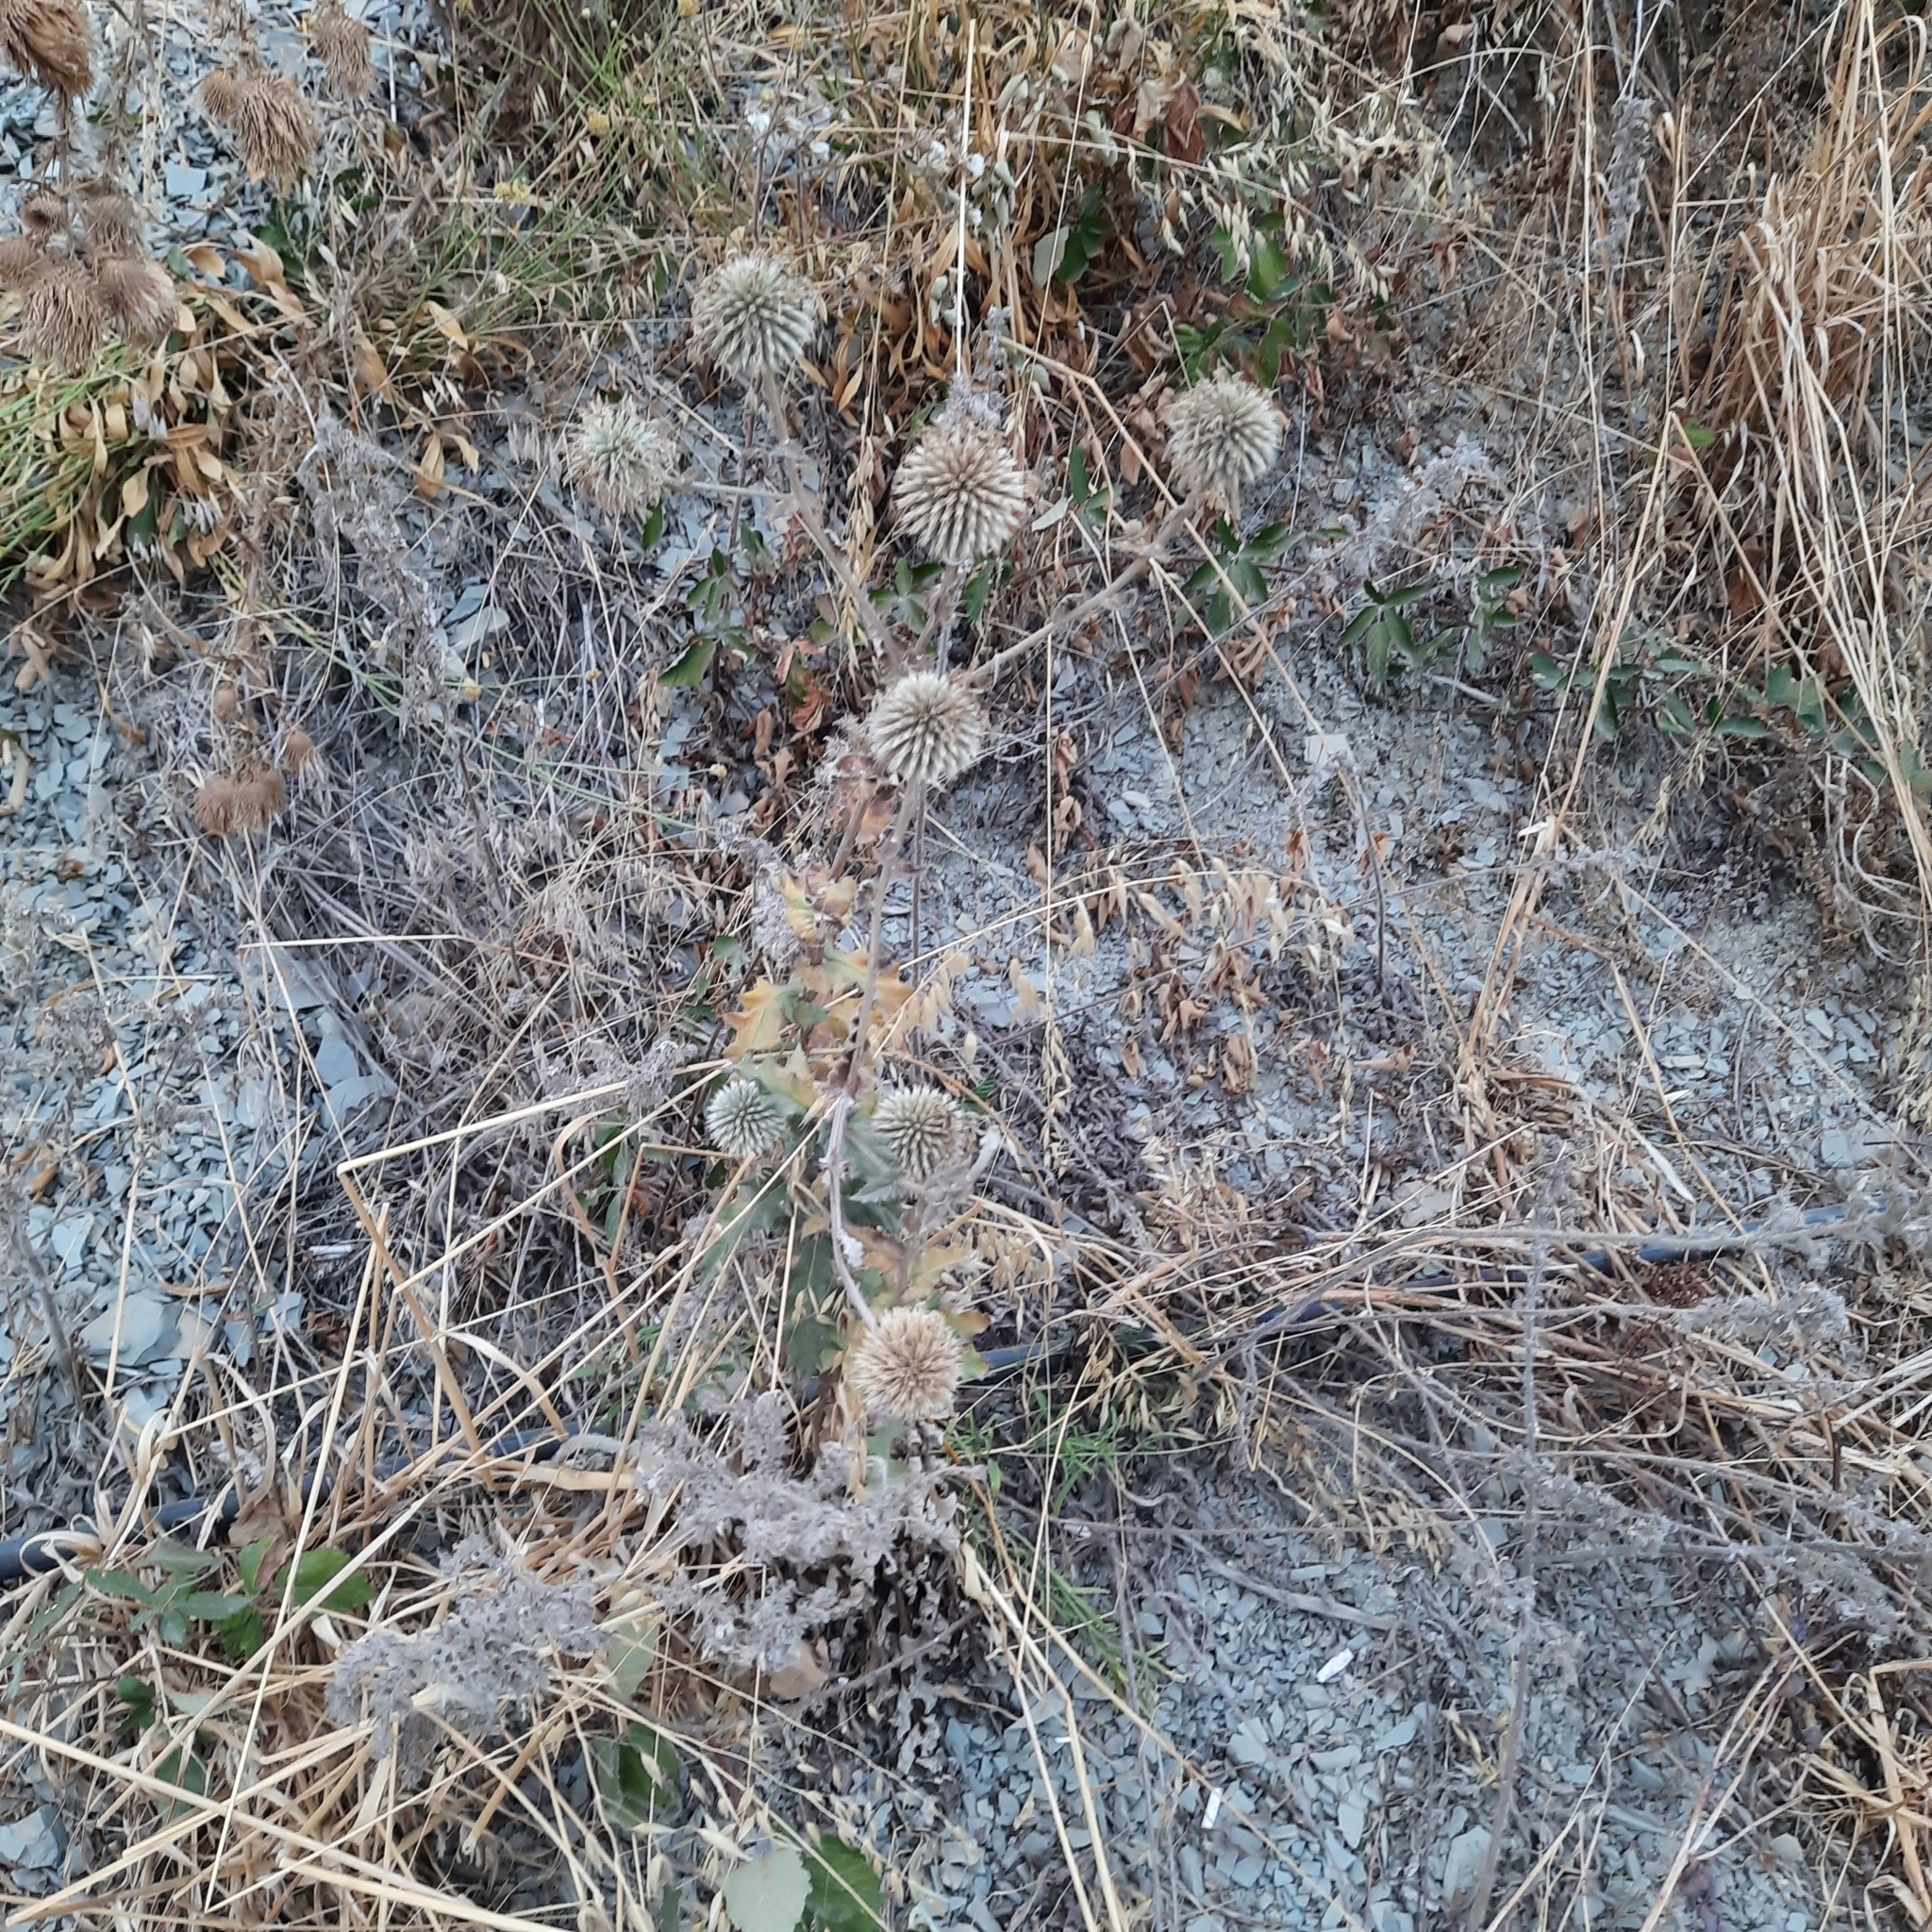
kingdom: Plantae
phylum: Tracheophyta
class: Magnoliopsida
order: Asterales
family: Asteraceae
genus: Echinops
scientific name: Echinops sphaerocephalus
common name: Glandular globe-thistle
